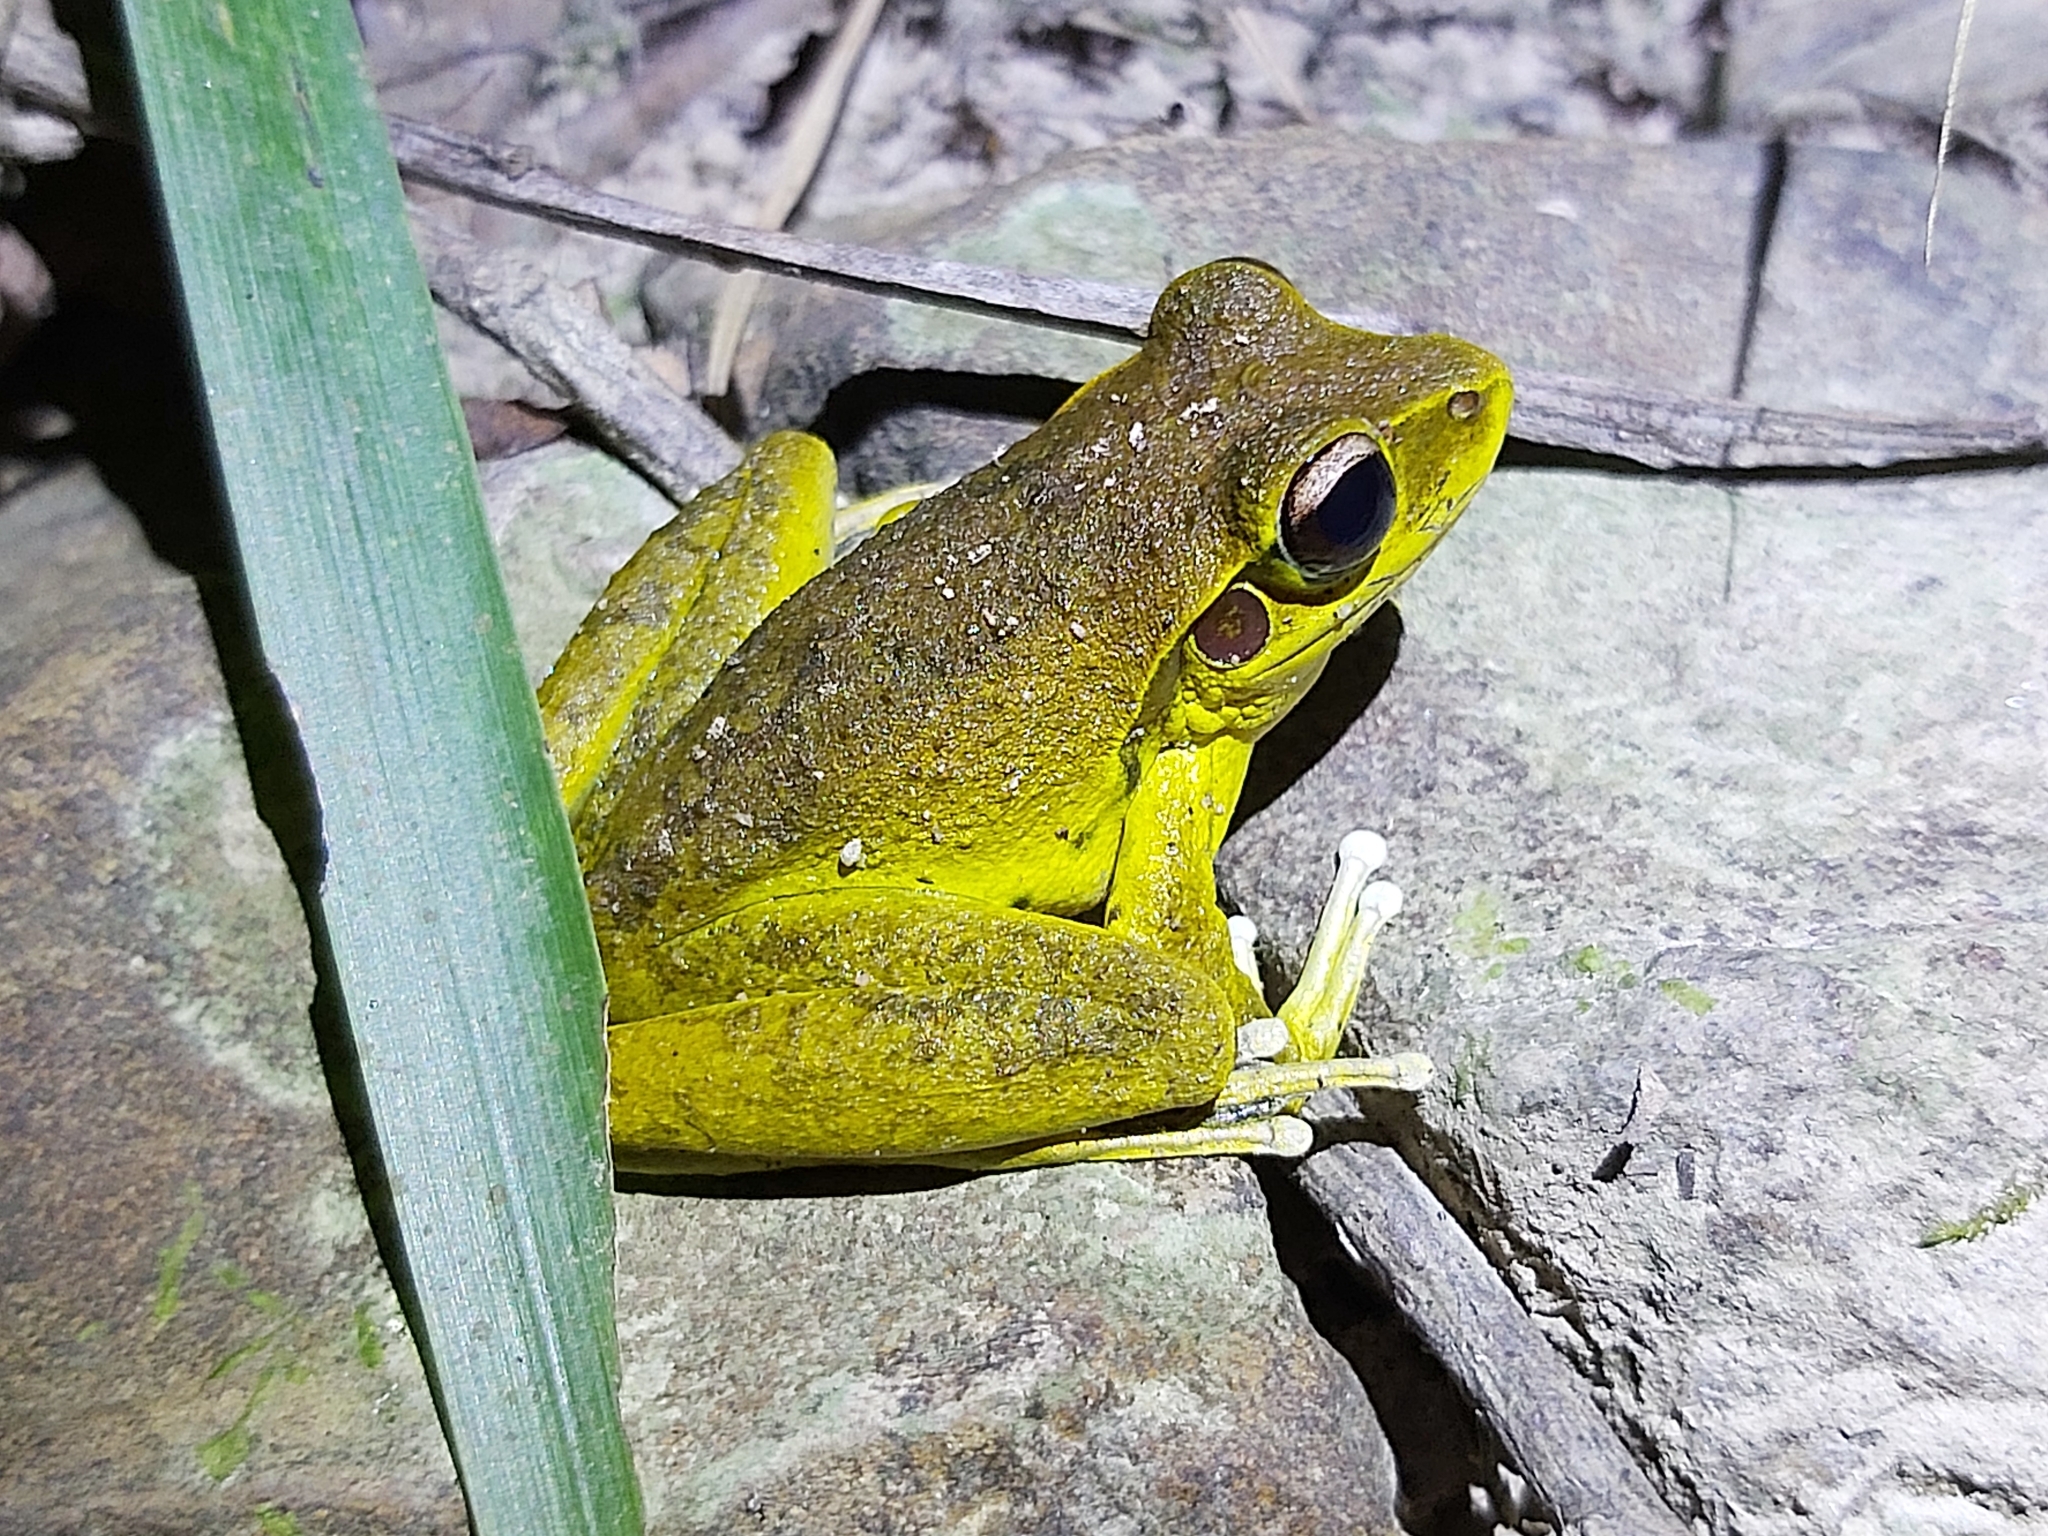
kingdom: Animalia
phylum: Chordata
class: Amphibia
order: Anura
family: Hylidae
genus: Ranoidea
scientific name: Ranoidea
